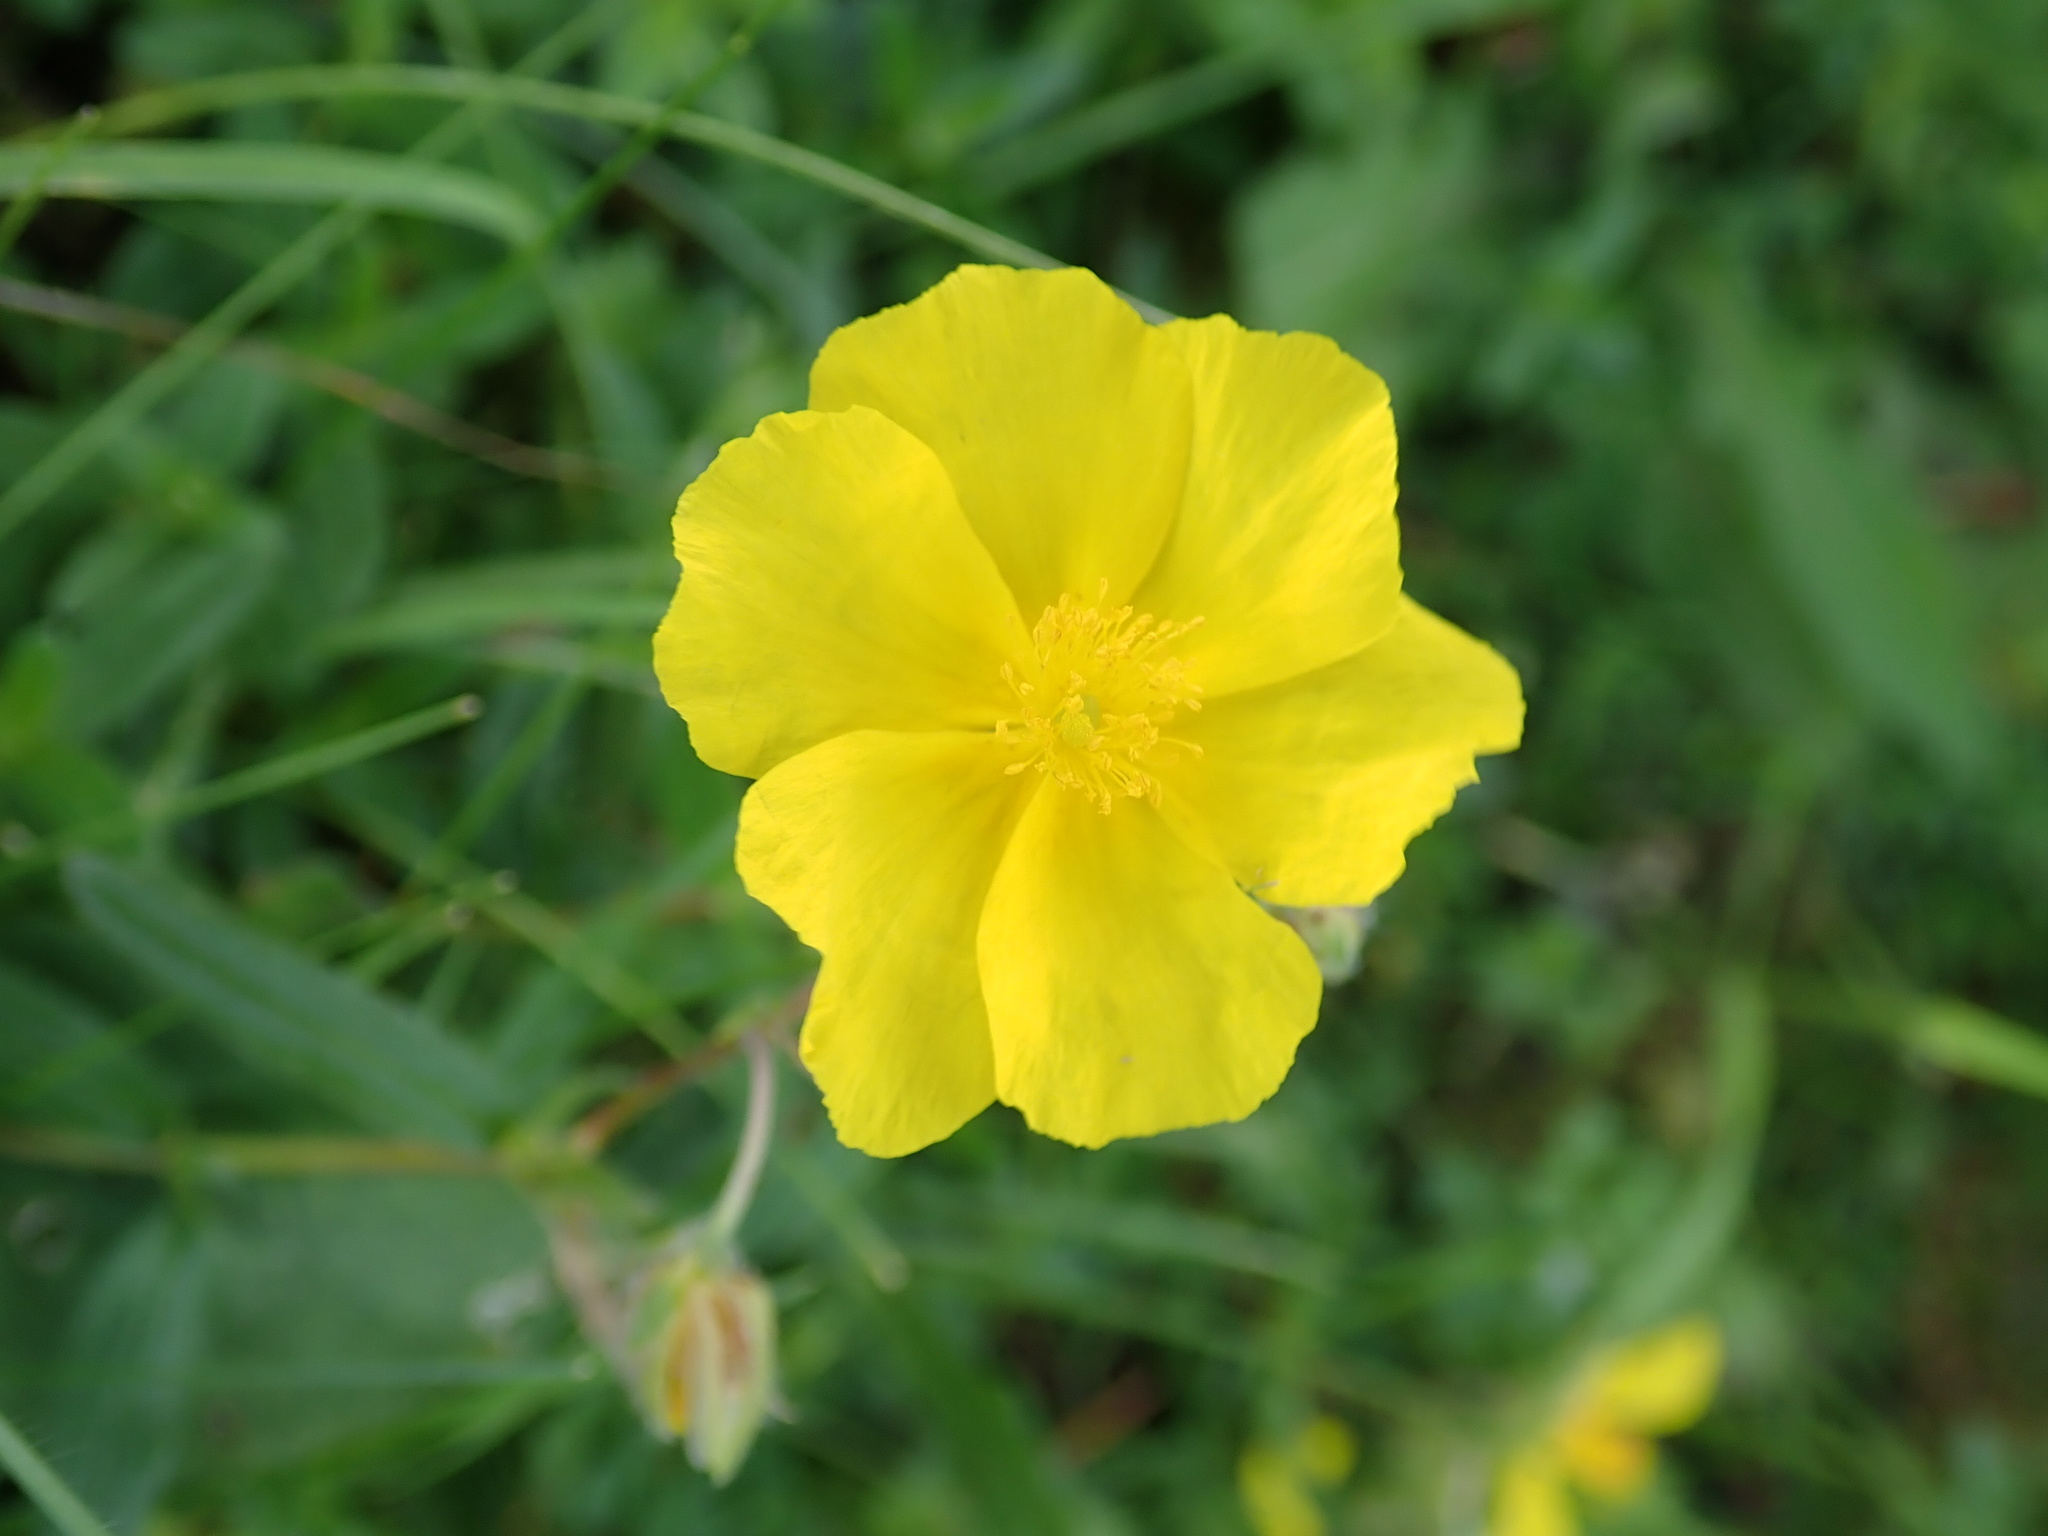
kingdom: Plantae
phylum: Tracheophyta
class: Magnoliopsida
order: Malvales
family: Cistaceae
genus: Helianthemum
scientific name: Helianthemum nummularium
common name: Common rock-rose
